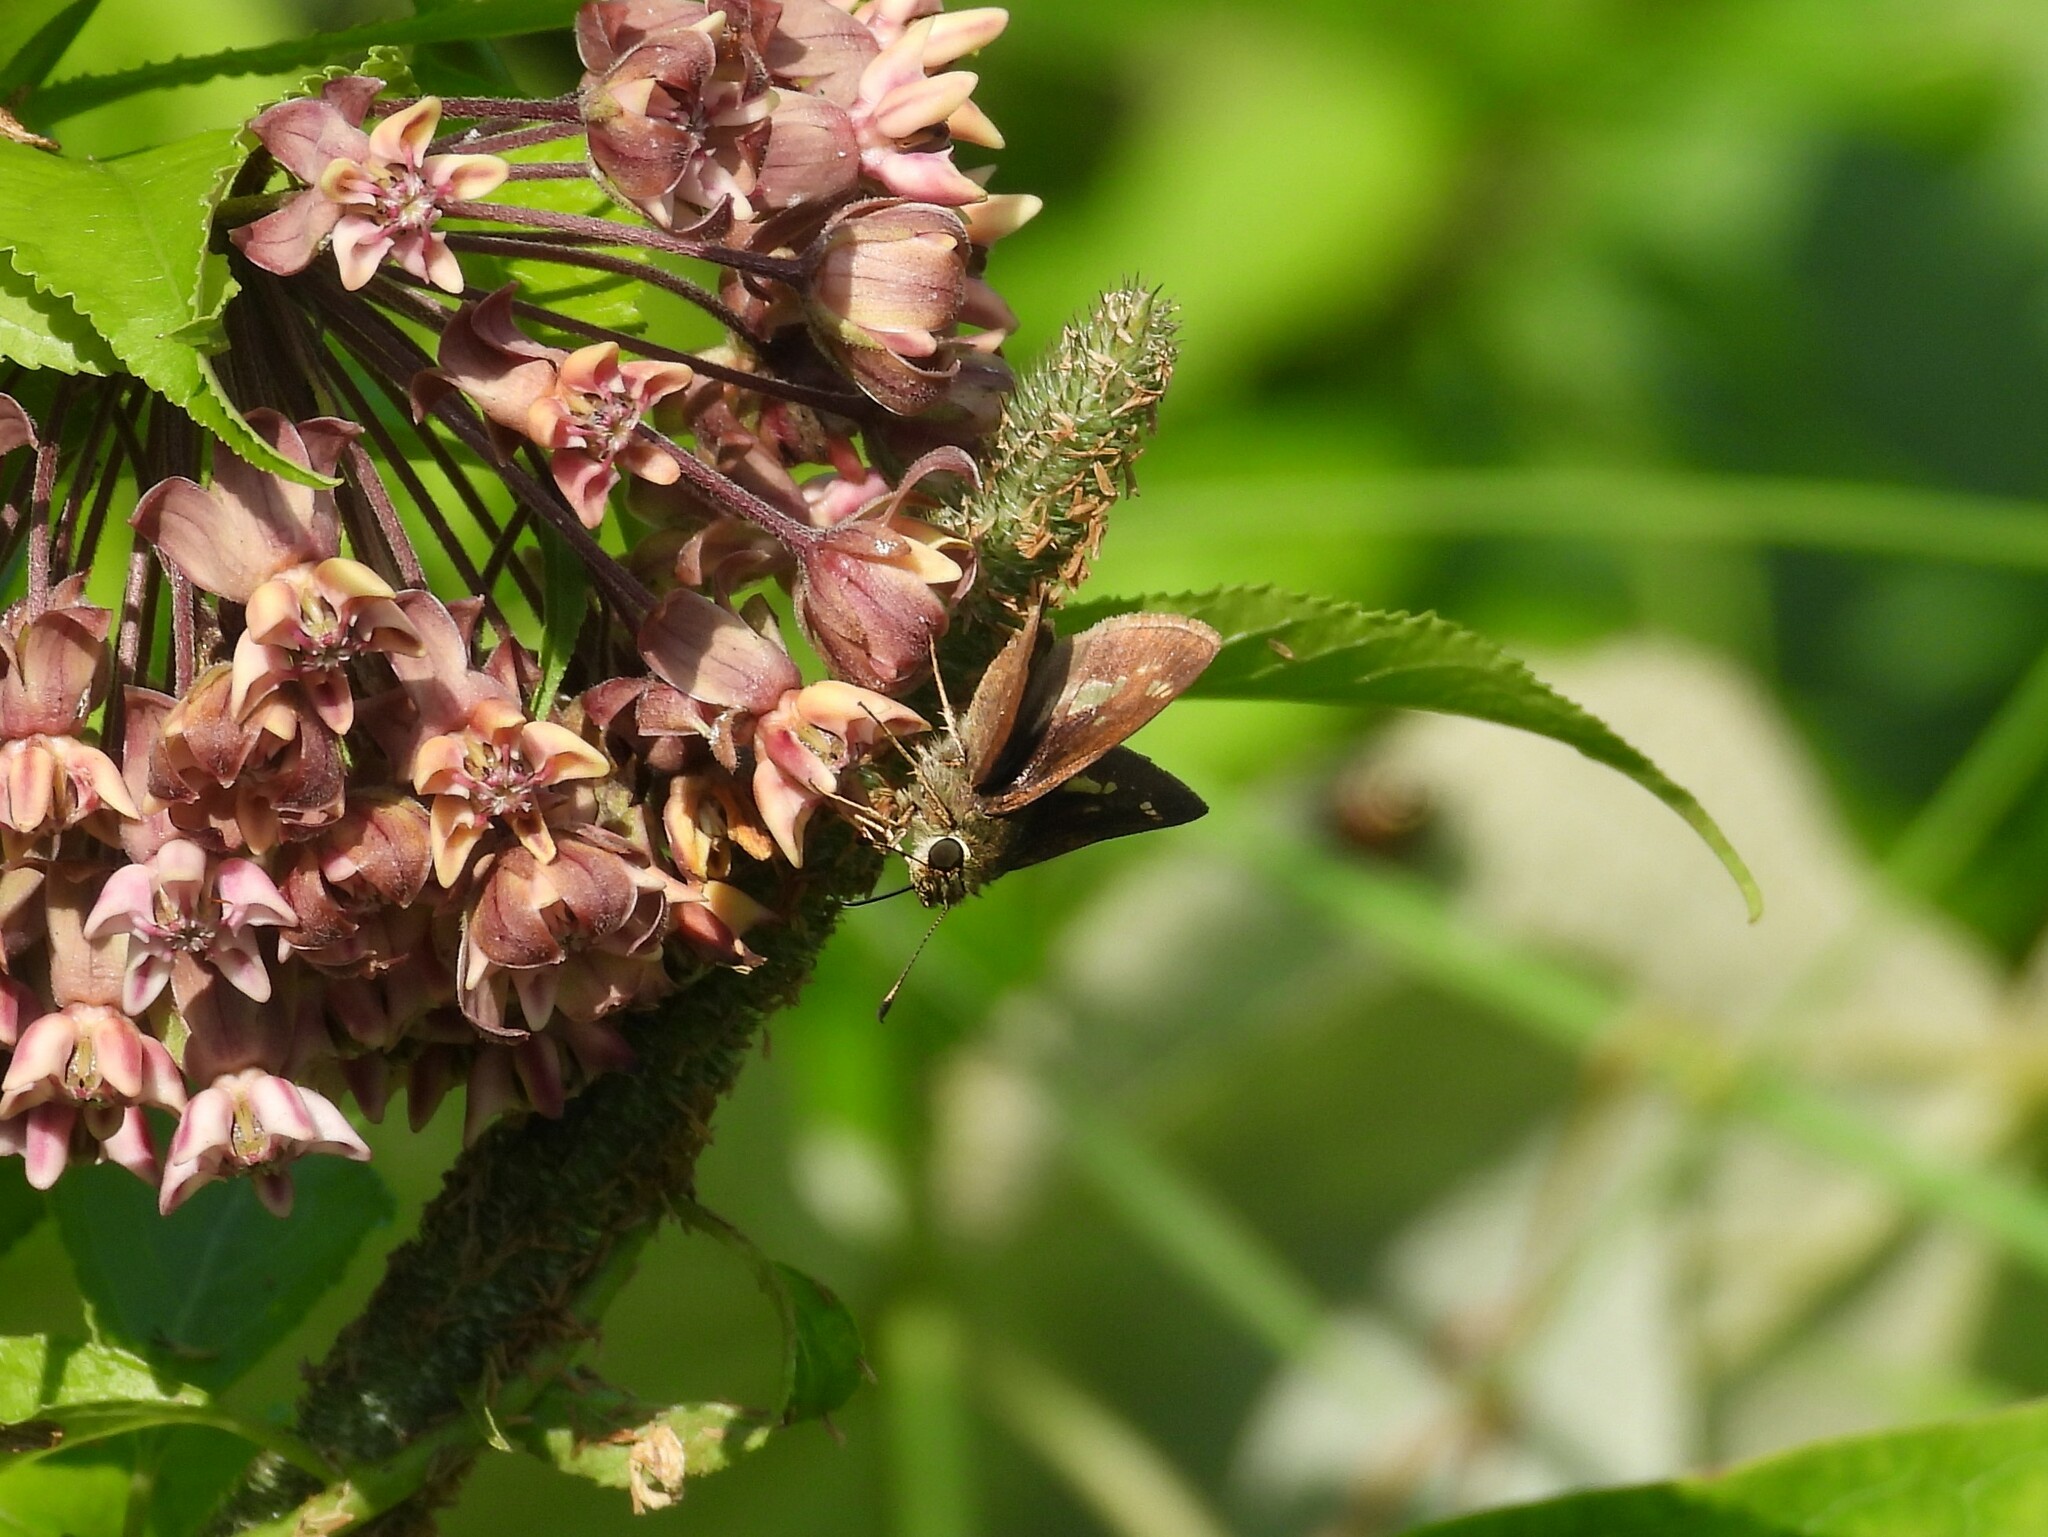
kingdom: Animalia
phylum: Arthropoda
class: Insecta
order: Lepidoptera
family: Hesperiidae
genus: Vernia
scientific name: Vernia verna
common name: Little glassywing
